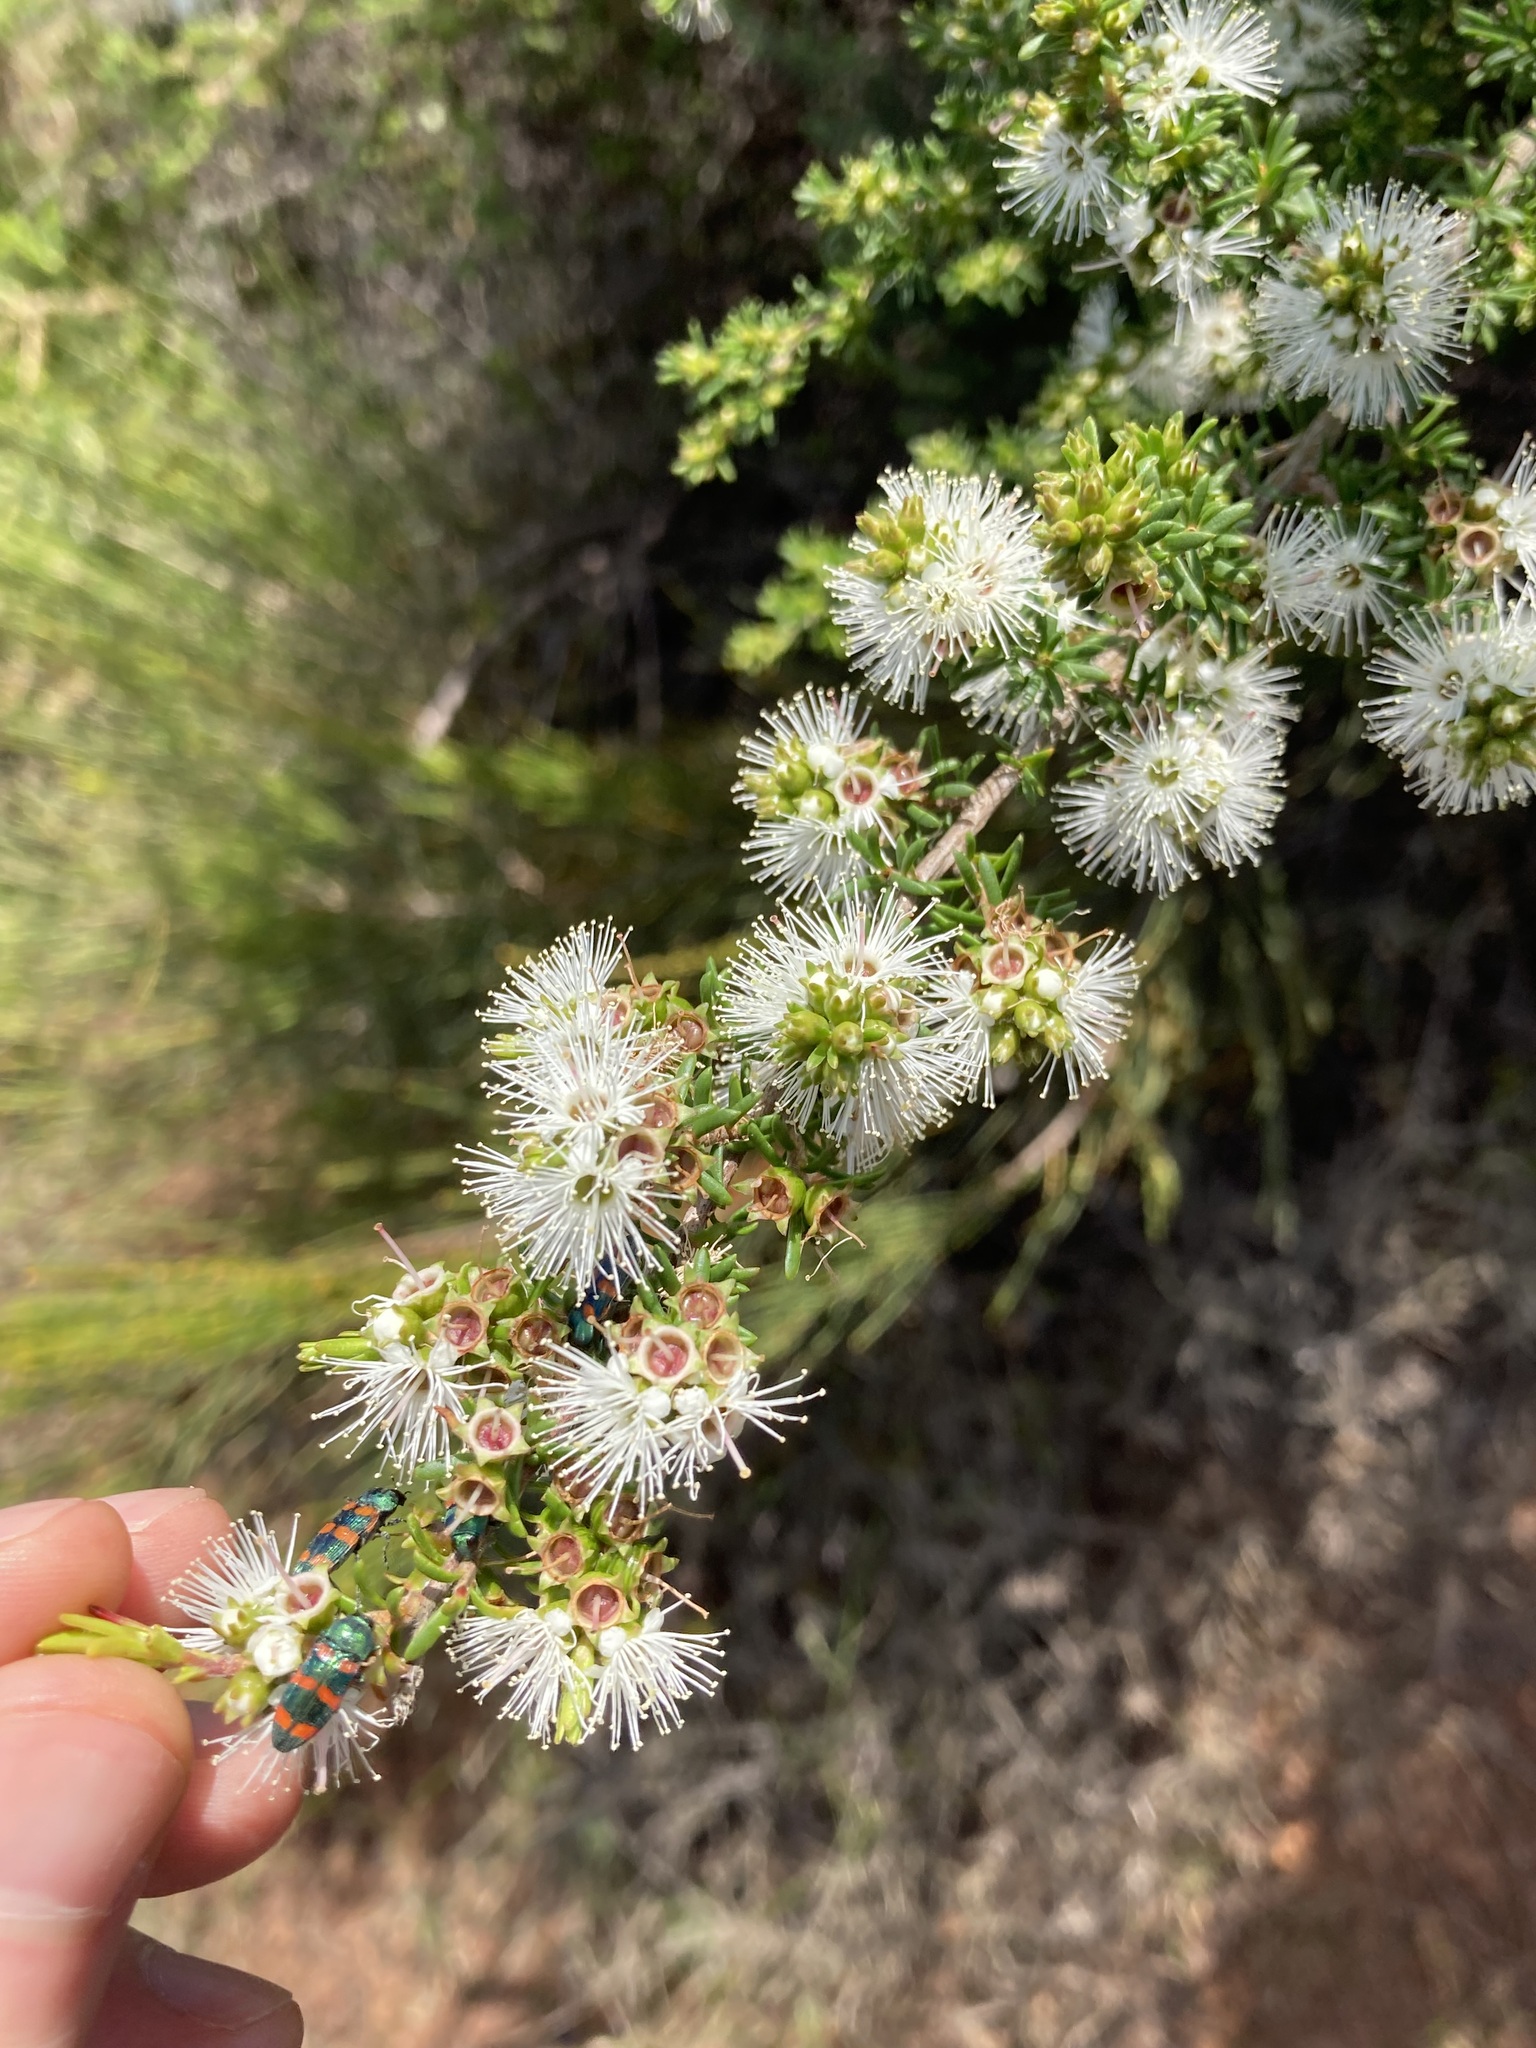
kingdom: Plantae
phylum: Tracheophyta
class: Magnoliopsida
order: Myrtales
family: Myrtaceae
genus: Kunzea
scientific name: Kunzea ambigua
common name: Tickbush
